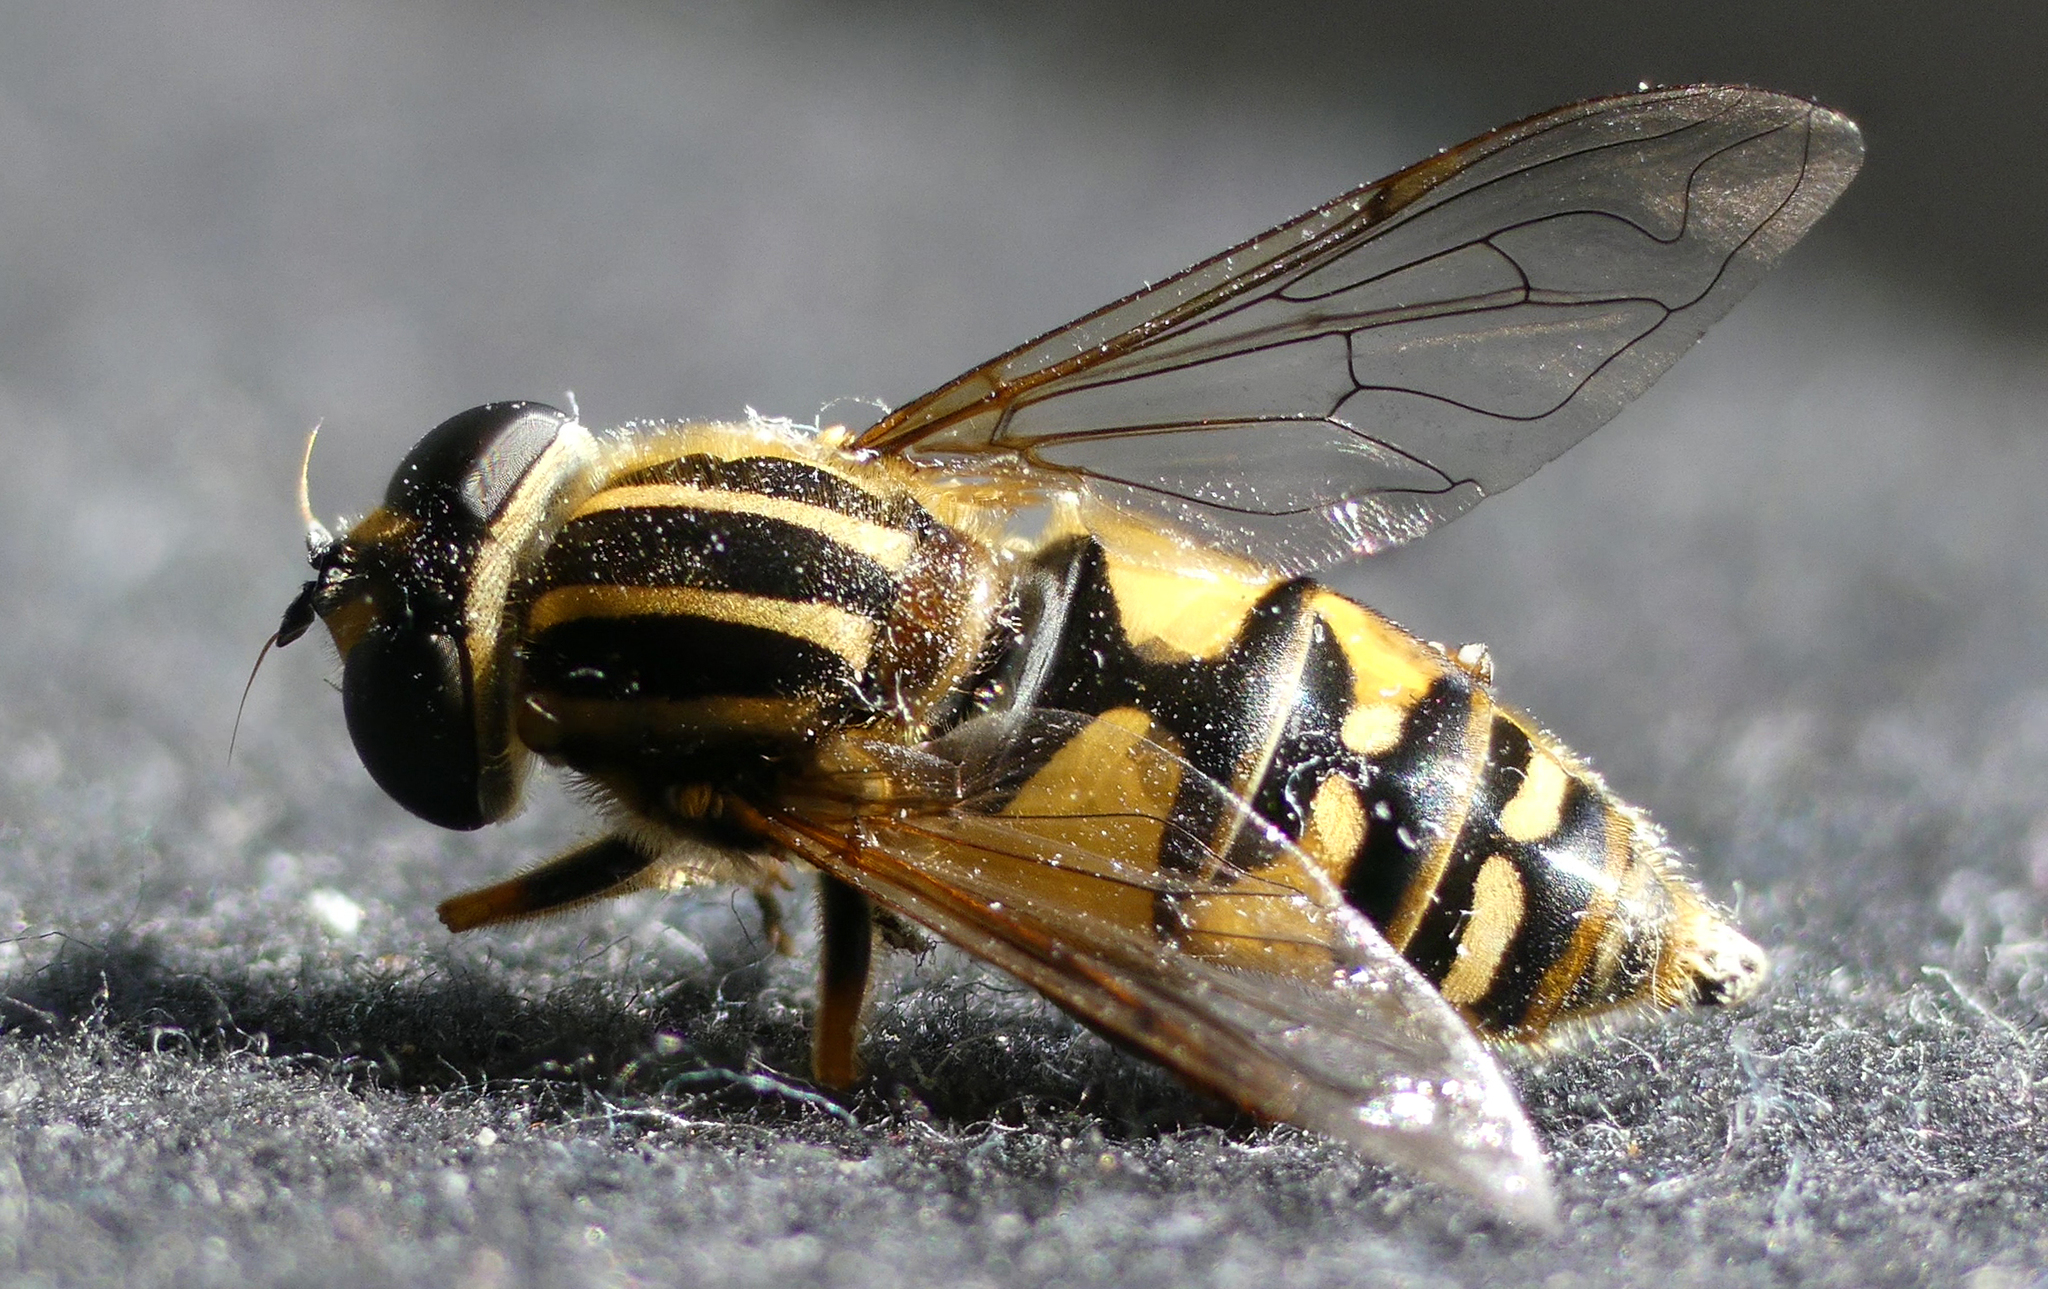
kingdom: Animalia
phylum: Arthropoda
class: Insecta
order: Diptera
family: Syrphidae
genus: Helophilus
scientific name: Helophilus pendulus
